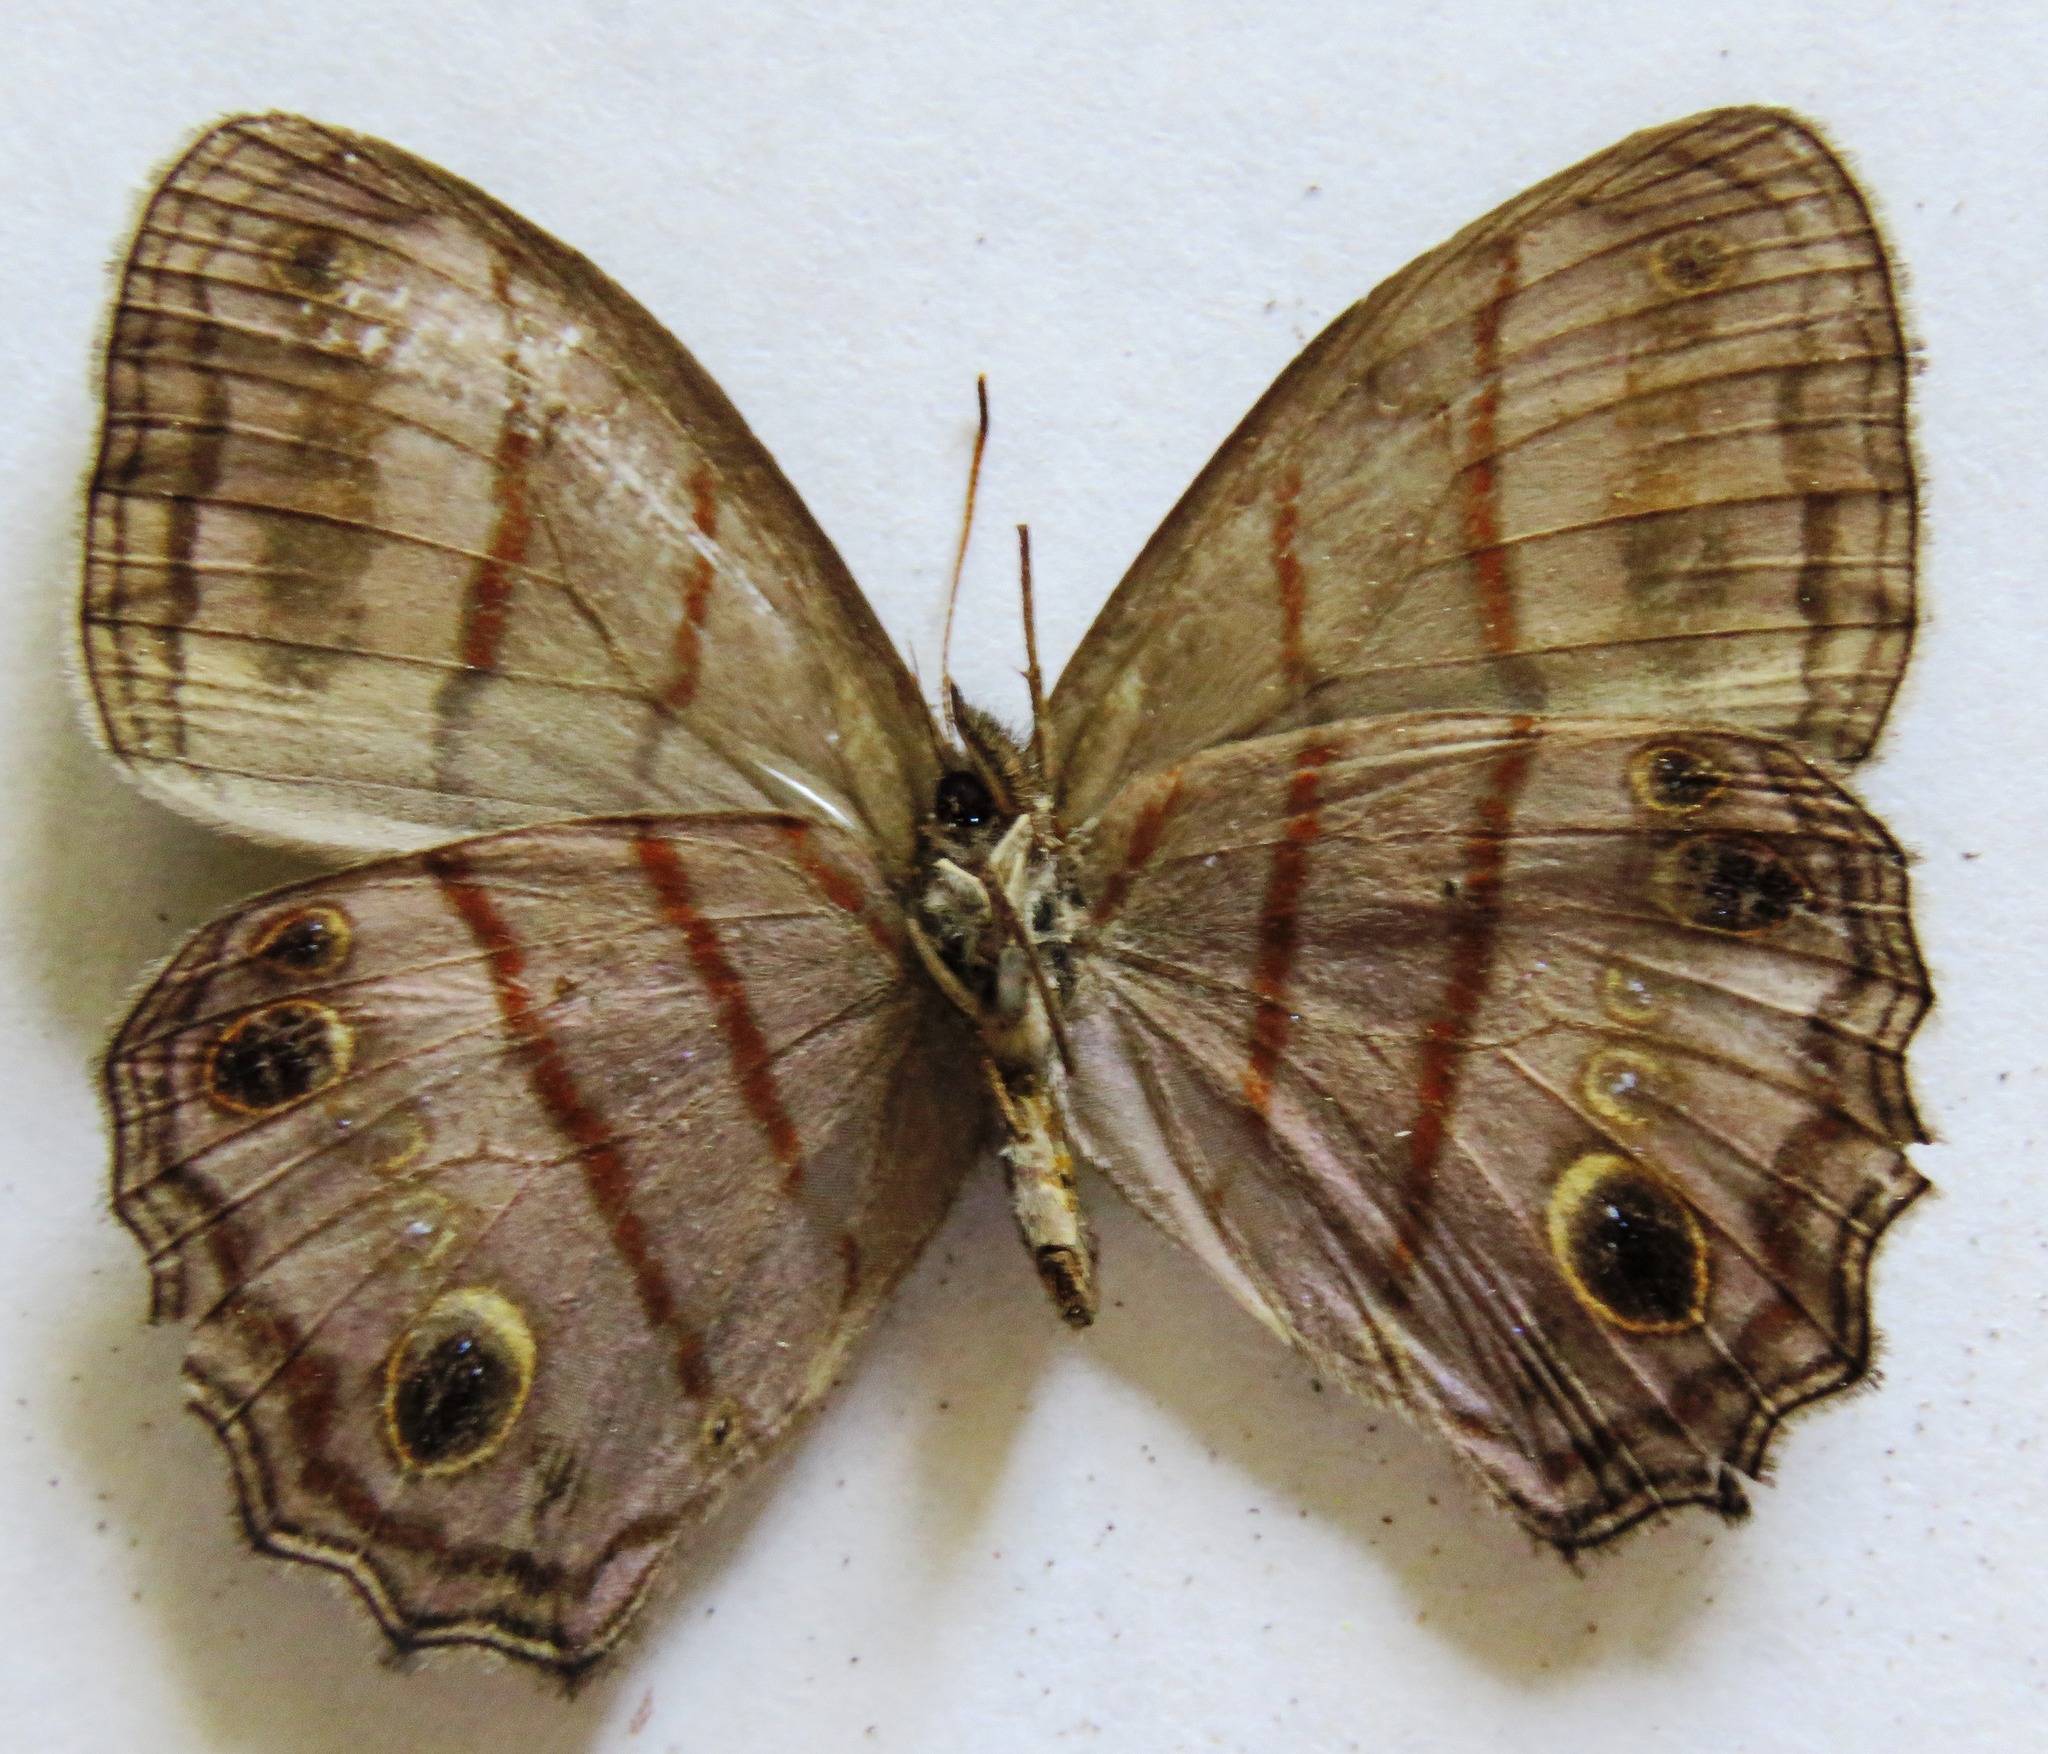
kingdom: Animalia
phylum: Arthropoda
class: Insecta
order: Lepidoptera
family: Nymphalidae
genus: Magneuptychia
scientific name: Magneuptychia libye
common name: Blue-gray satyr
